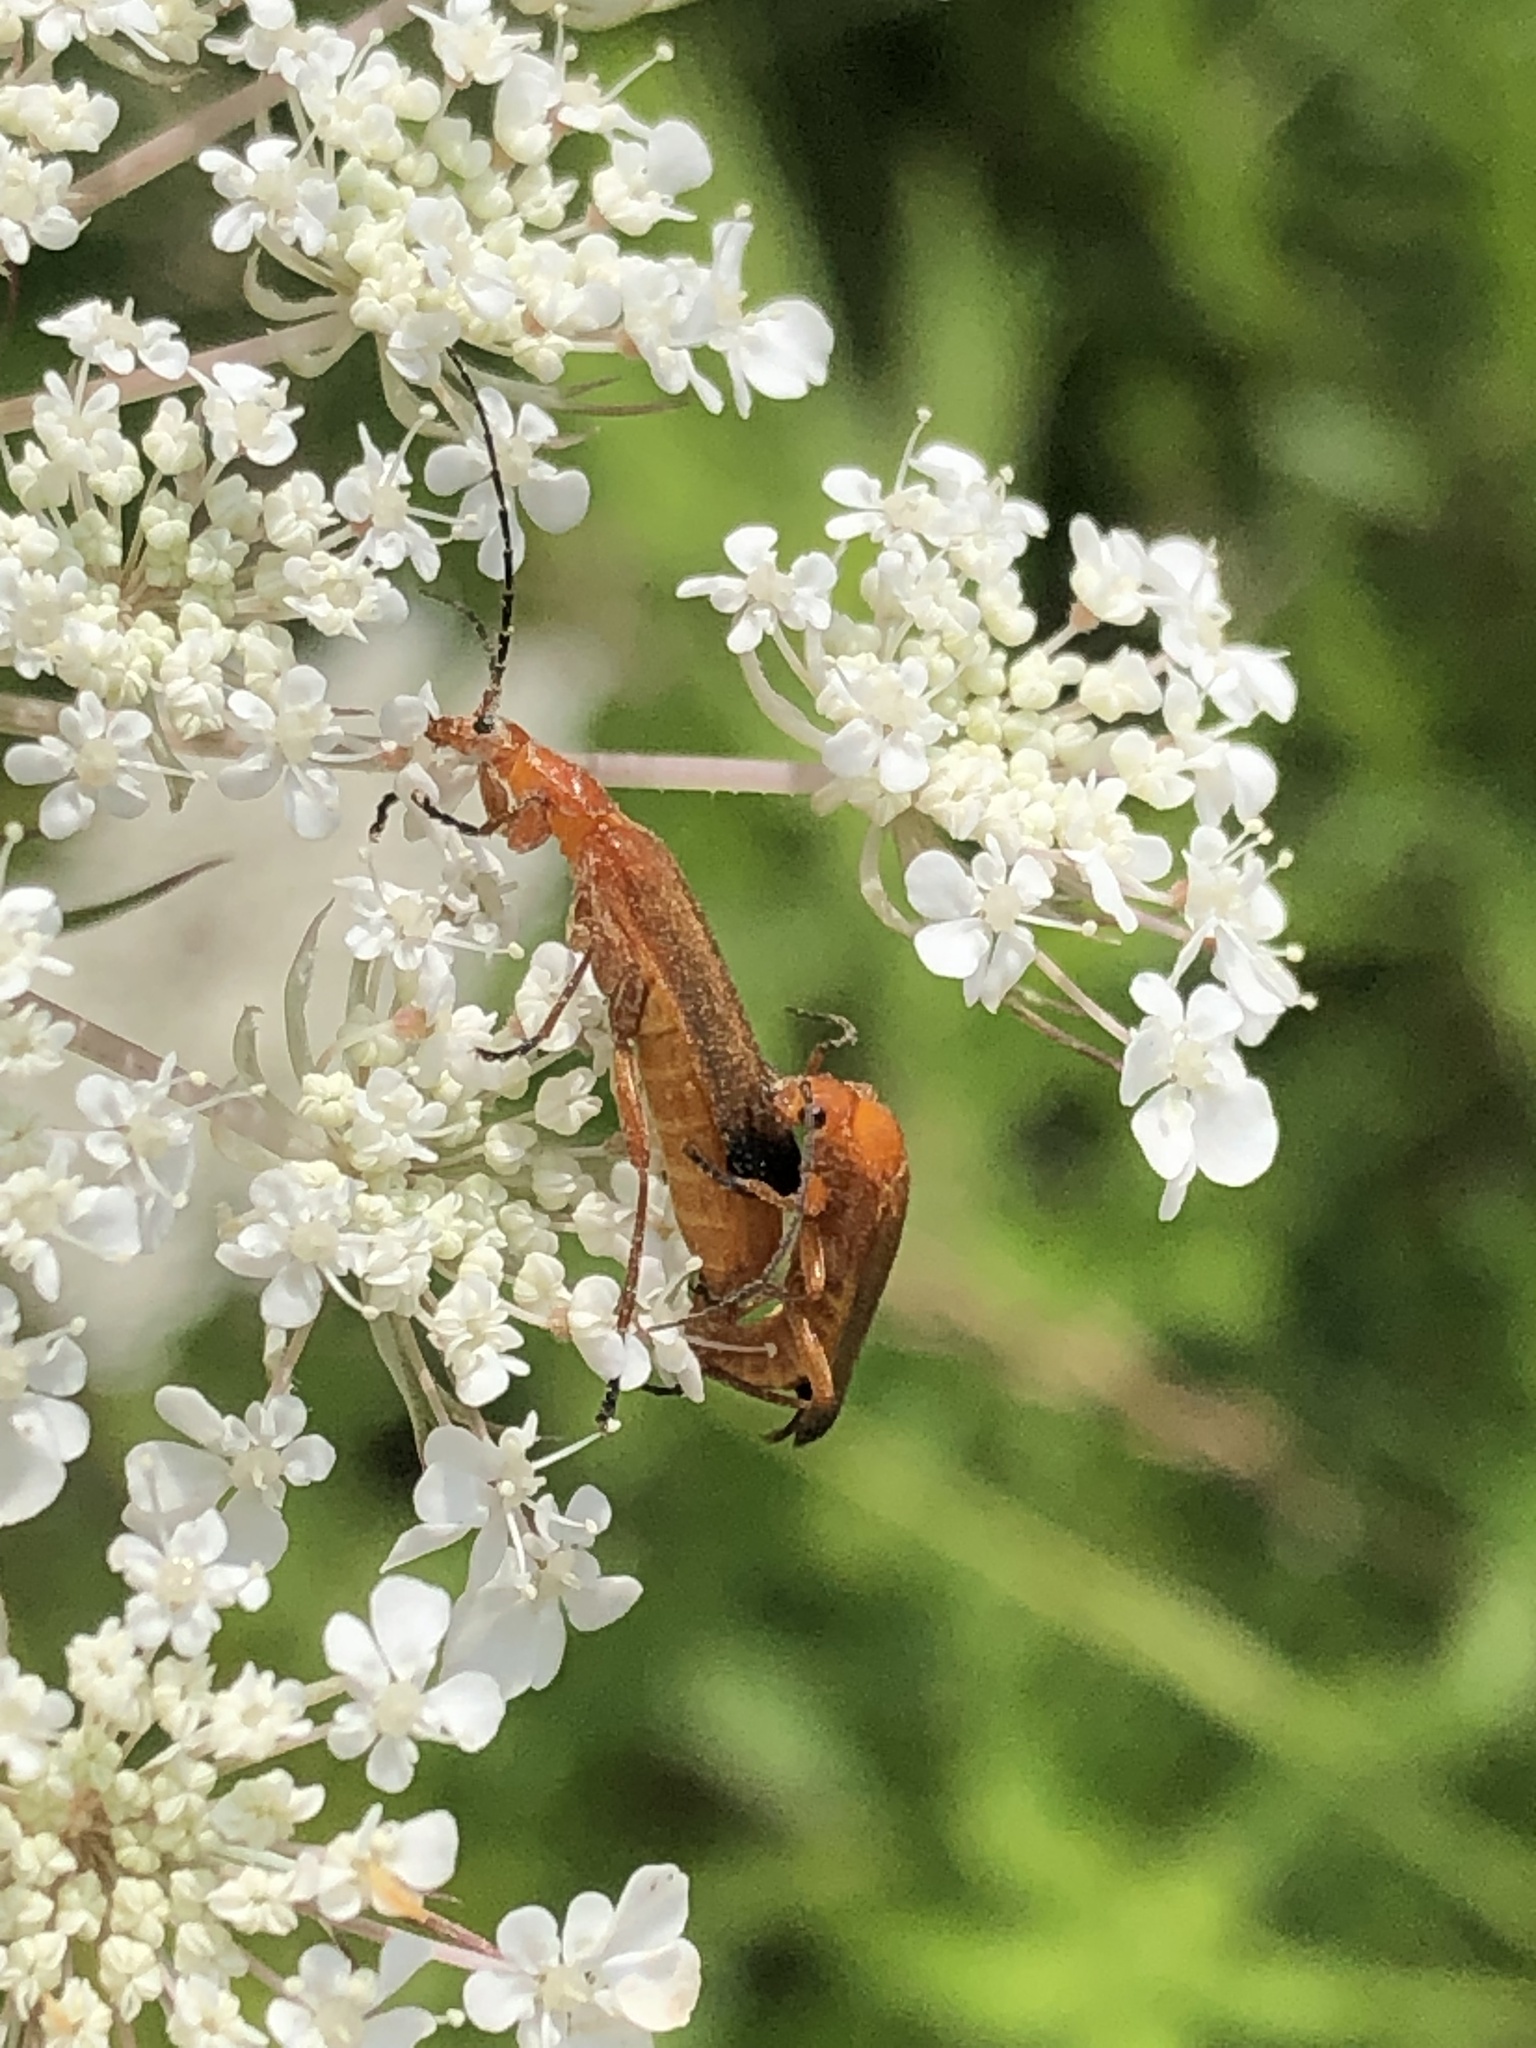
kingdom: Animalia
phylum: Arthropoda
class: Insecta
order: Coleoptera
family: Cantharidae
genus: Rhagonycha
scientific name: Rhagonycha fulva
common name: Common red soldier beetle
